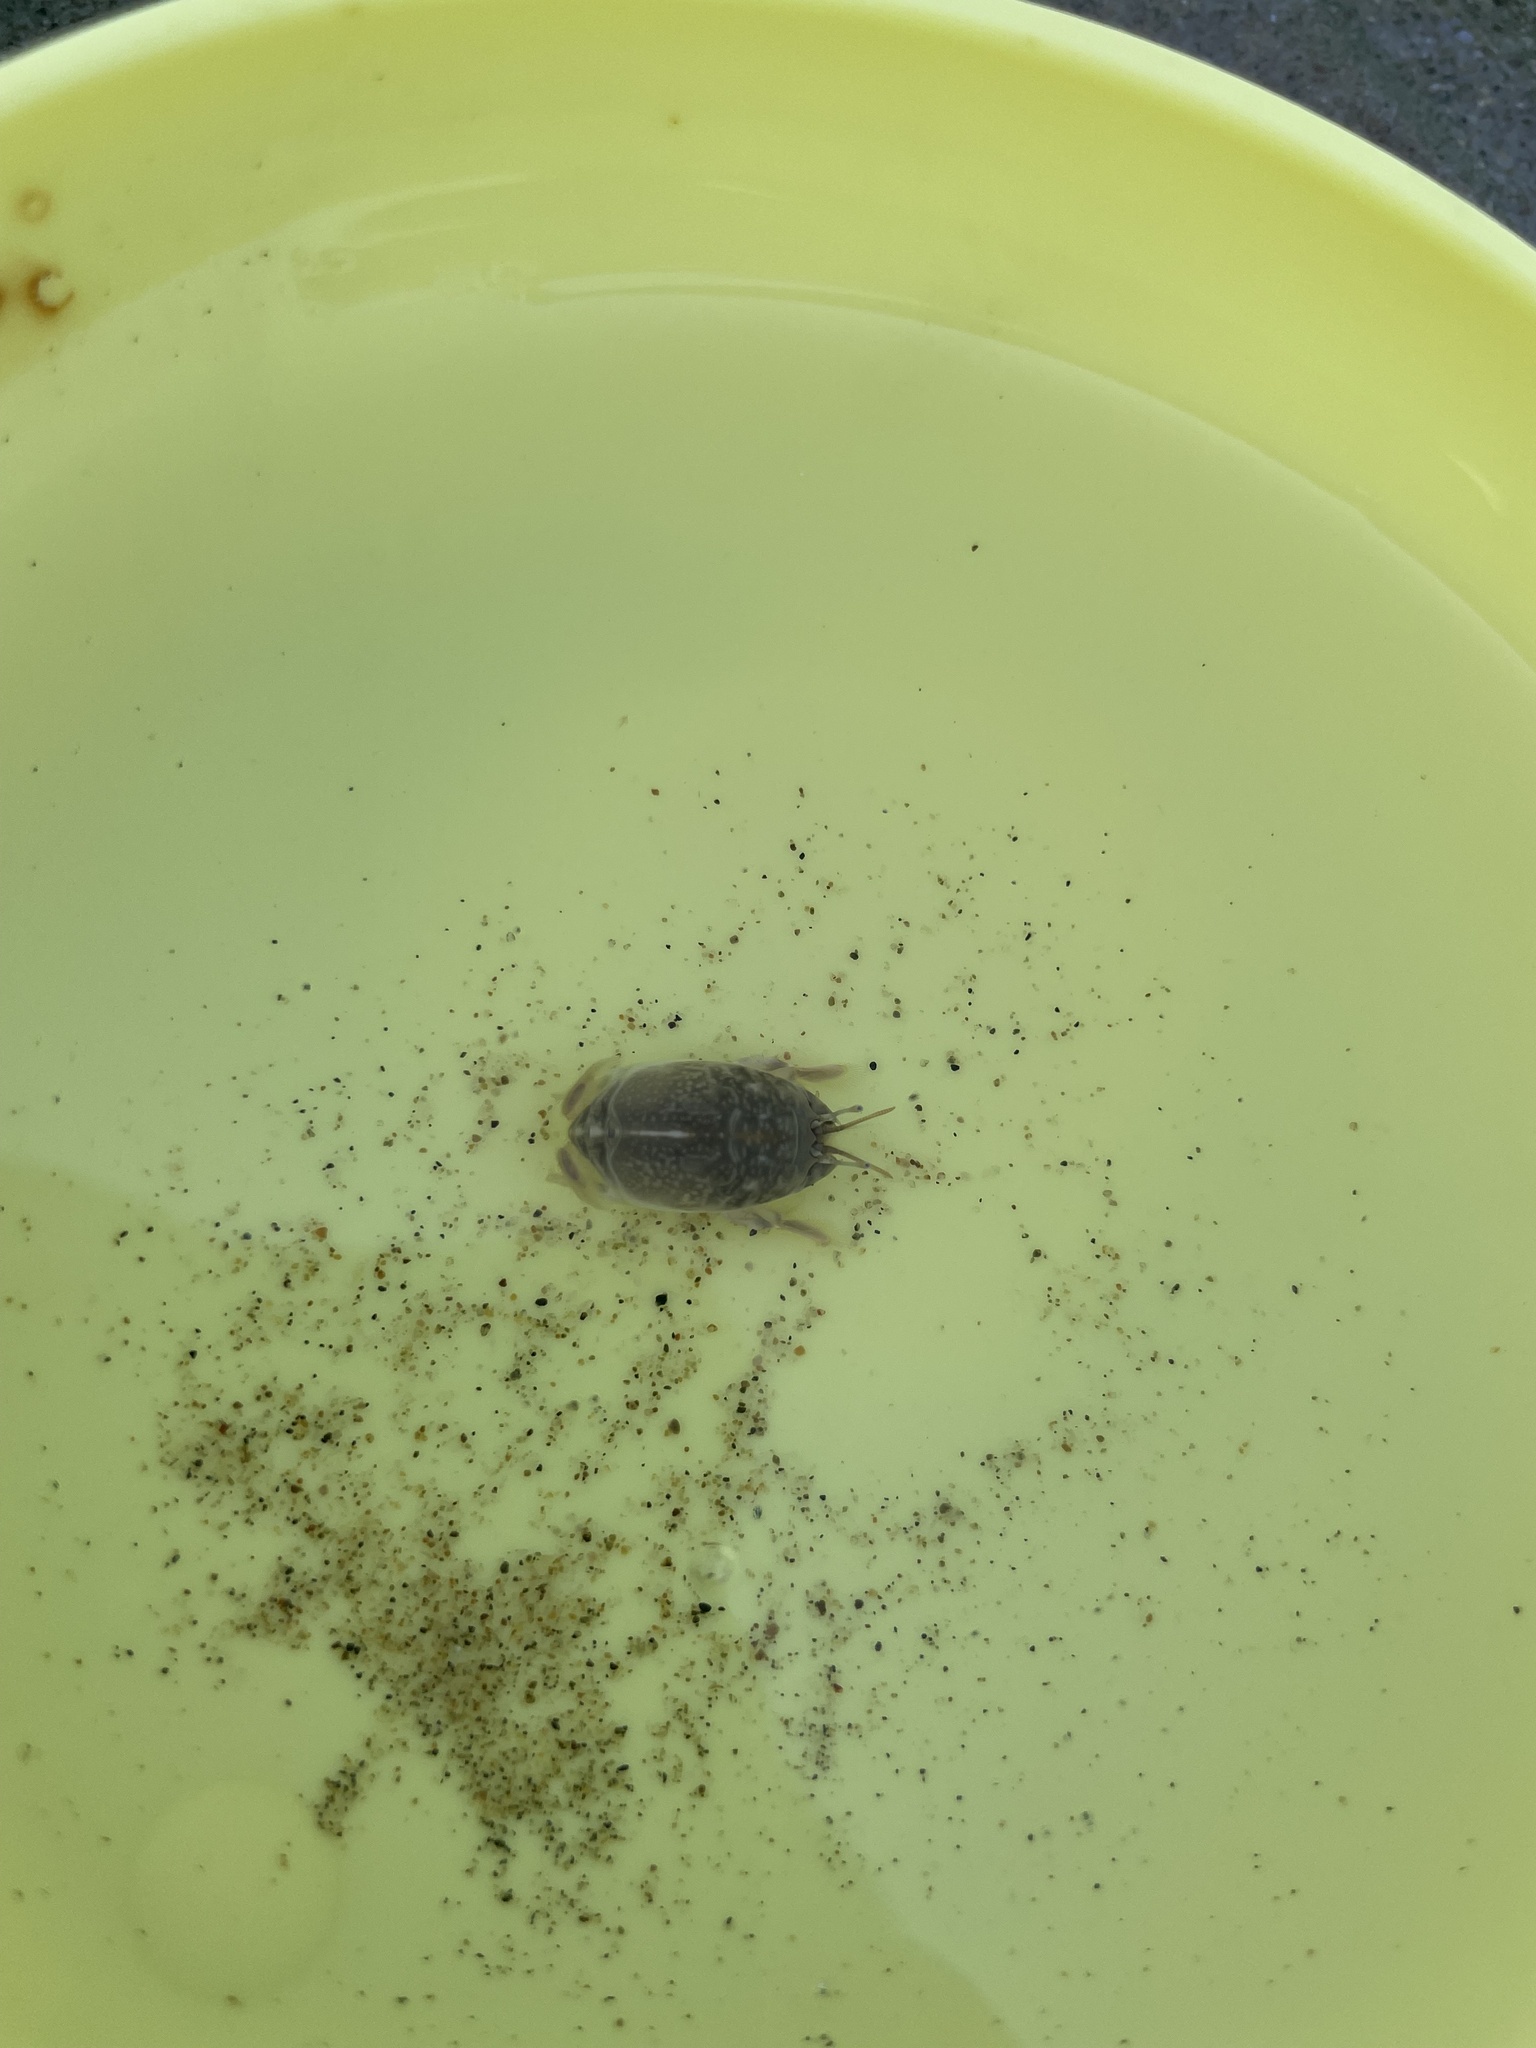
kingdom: Animalia
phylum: Arthropoda
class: Malacostraca
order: Decapoda
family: Hippidae
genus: Emerita
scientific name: Emerita analoga
